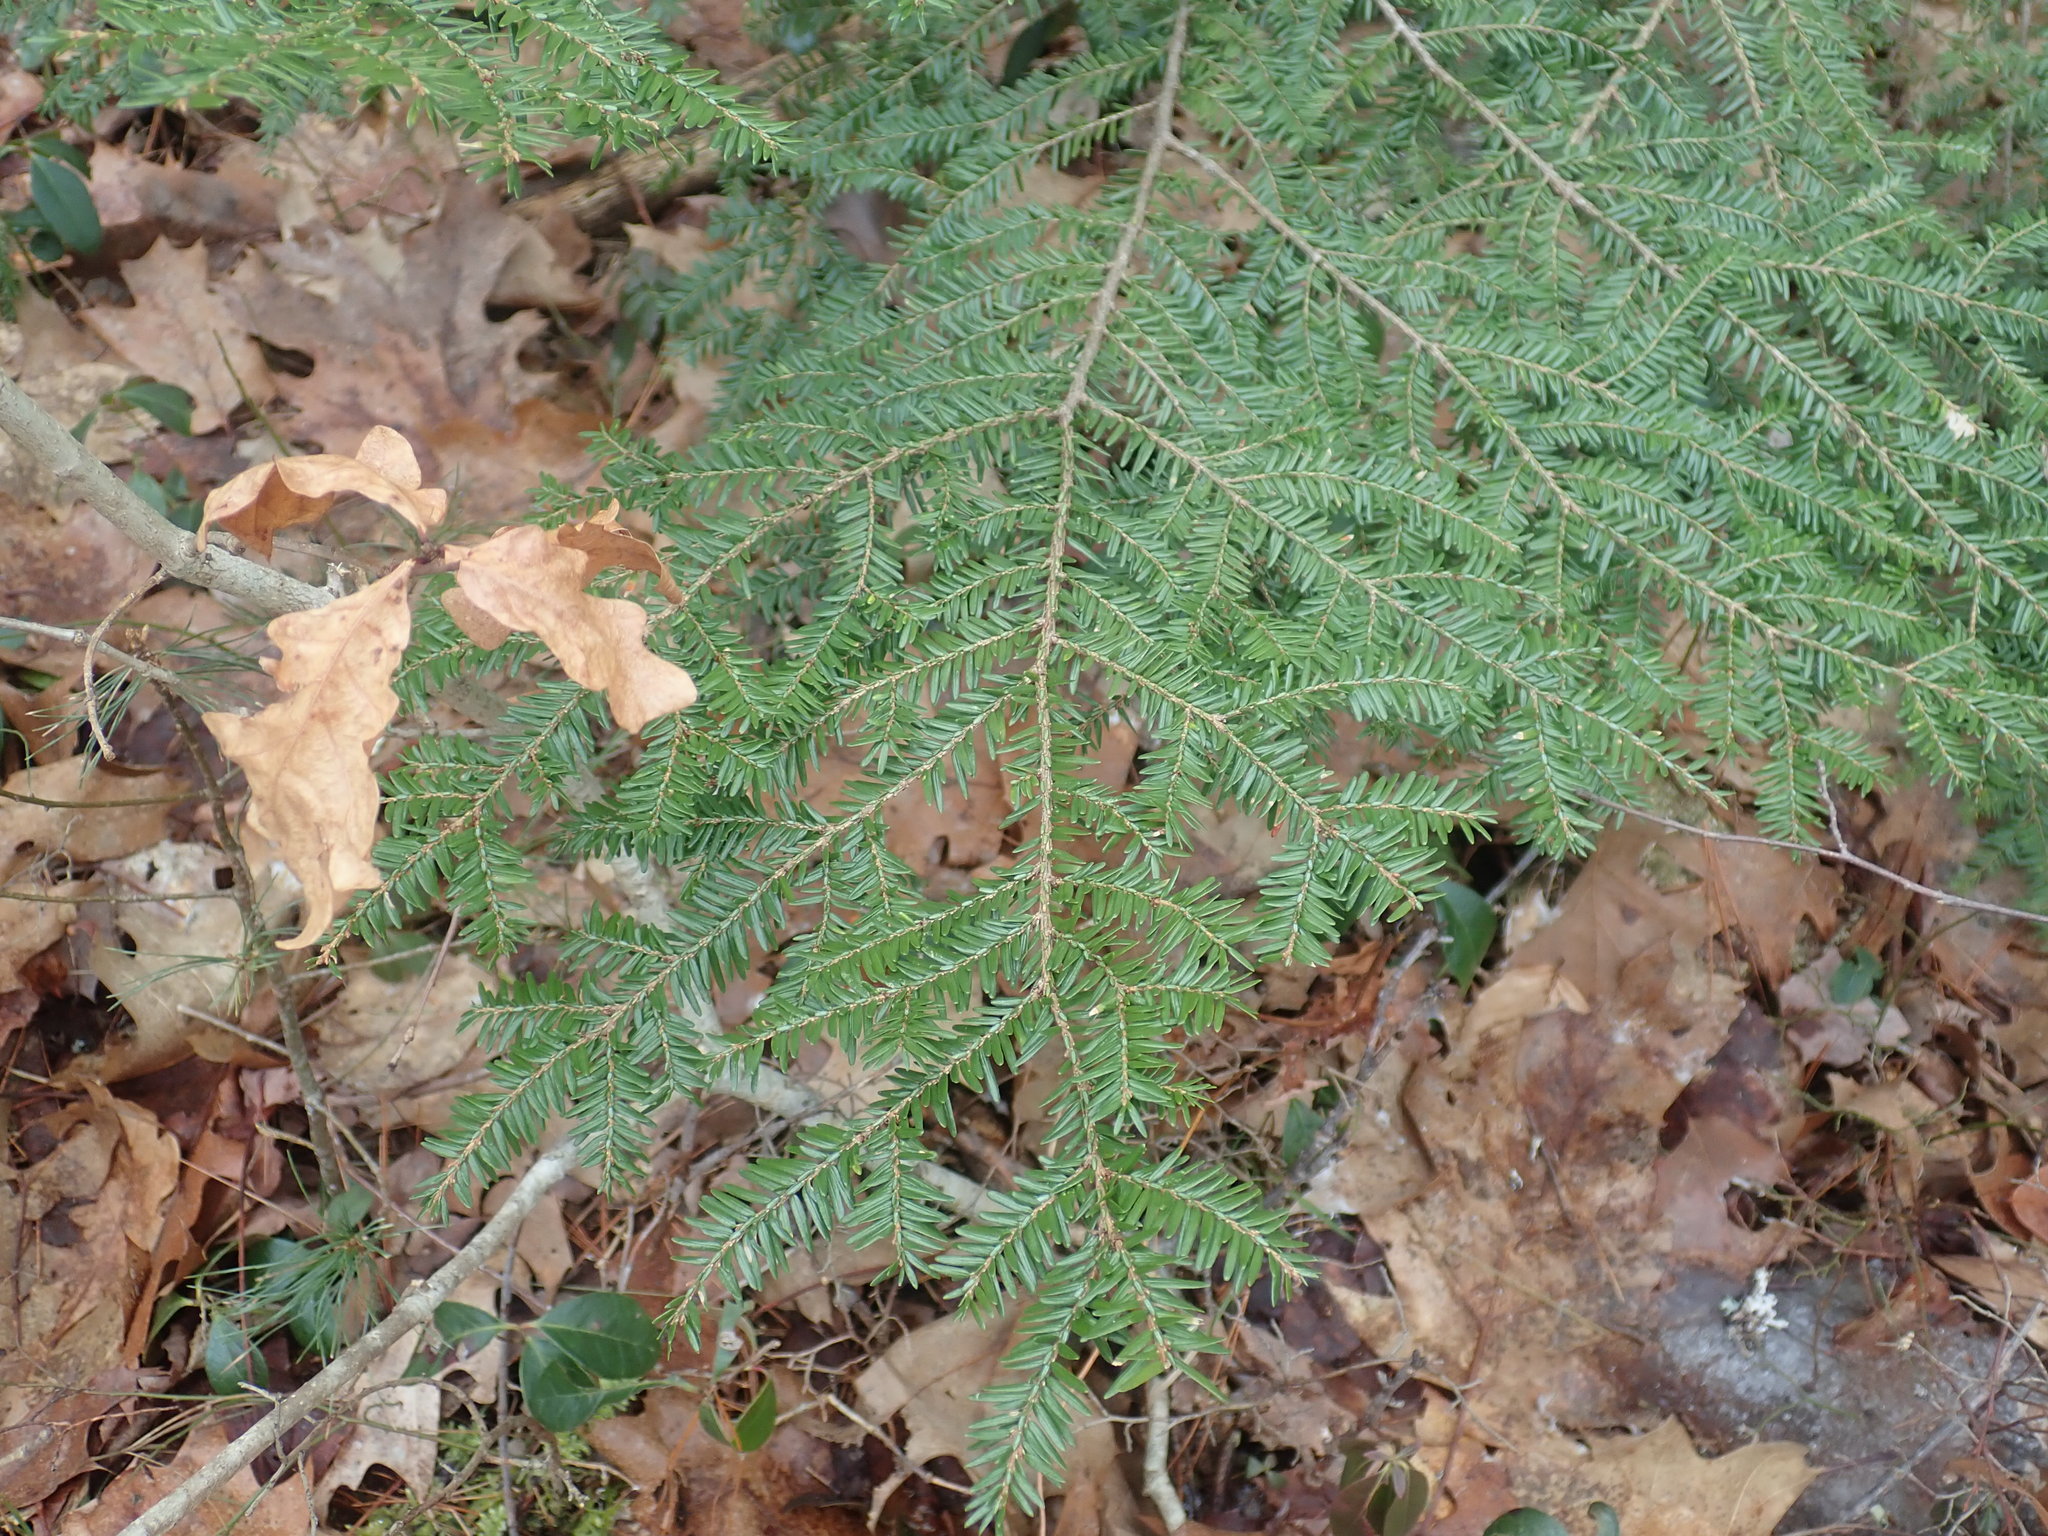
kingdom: Plantae
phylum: Tracheophyta
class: Pinopsida
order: Pinales
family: Pinaceae
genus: Tsuga
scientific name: Tsuga canadensis
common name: Eastern hemlock
